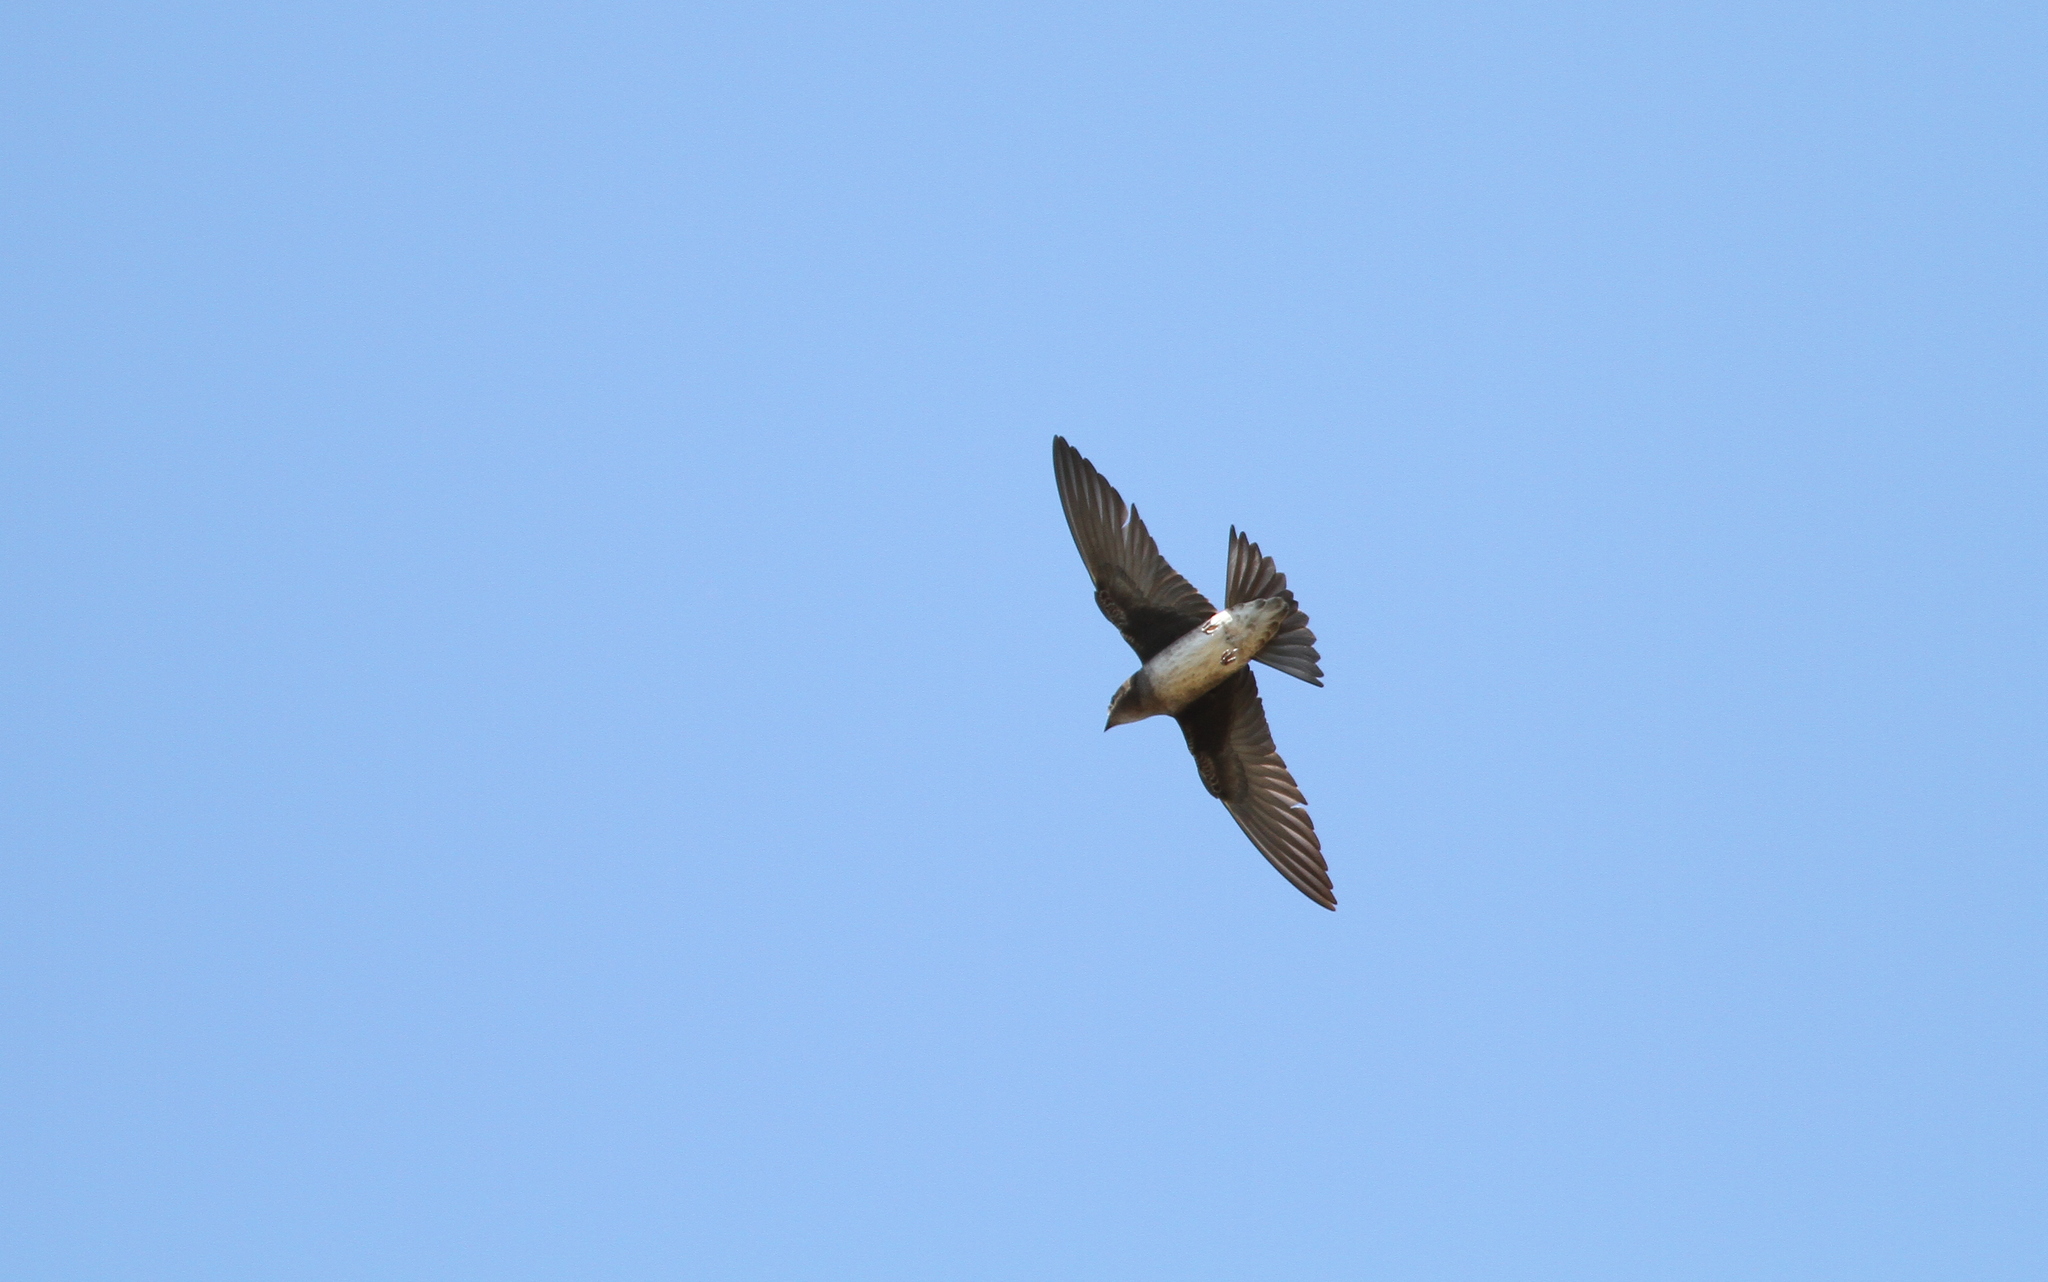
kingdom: Animalia
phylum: Chordata
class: Aves
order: Passeriformes
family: Hirundinidae
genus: Progne
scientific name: Progne cryptoleuca
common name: Cuban martin
